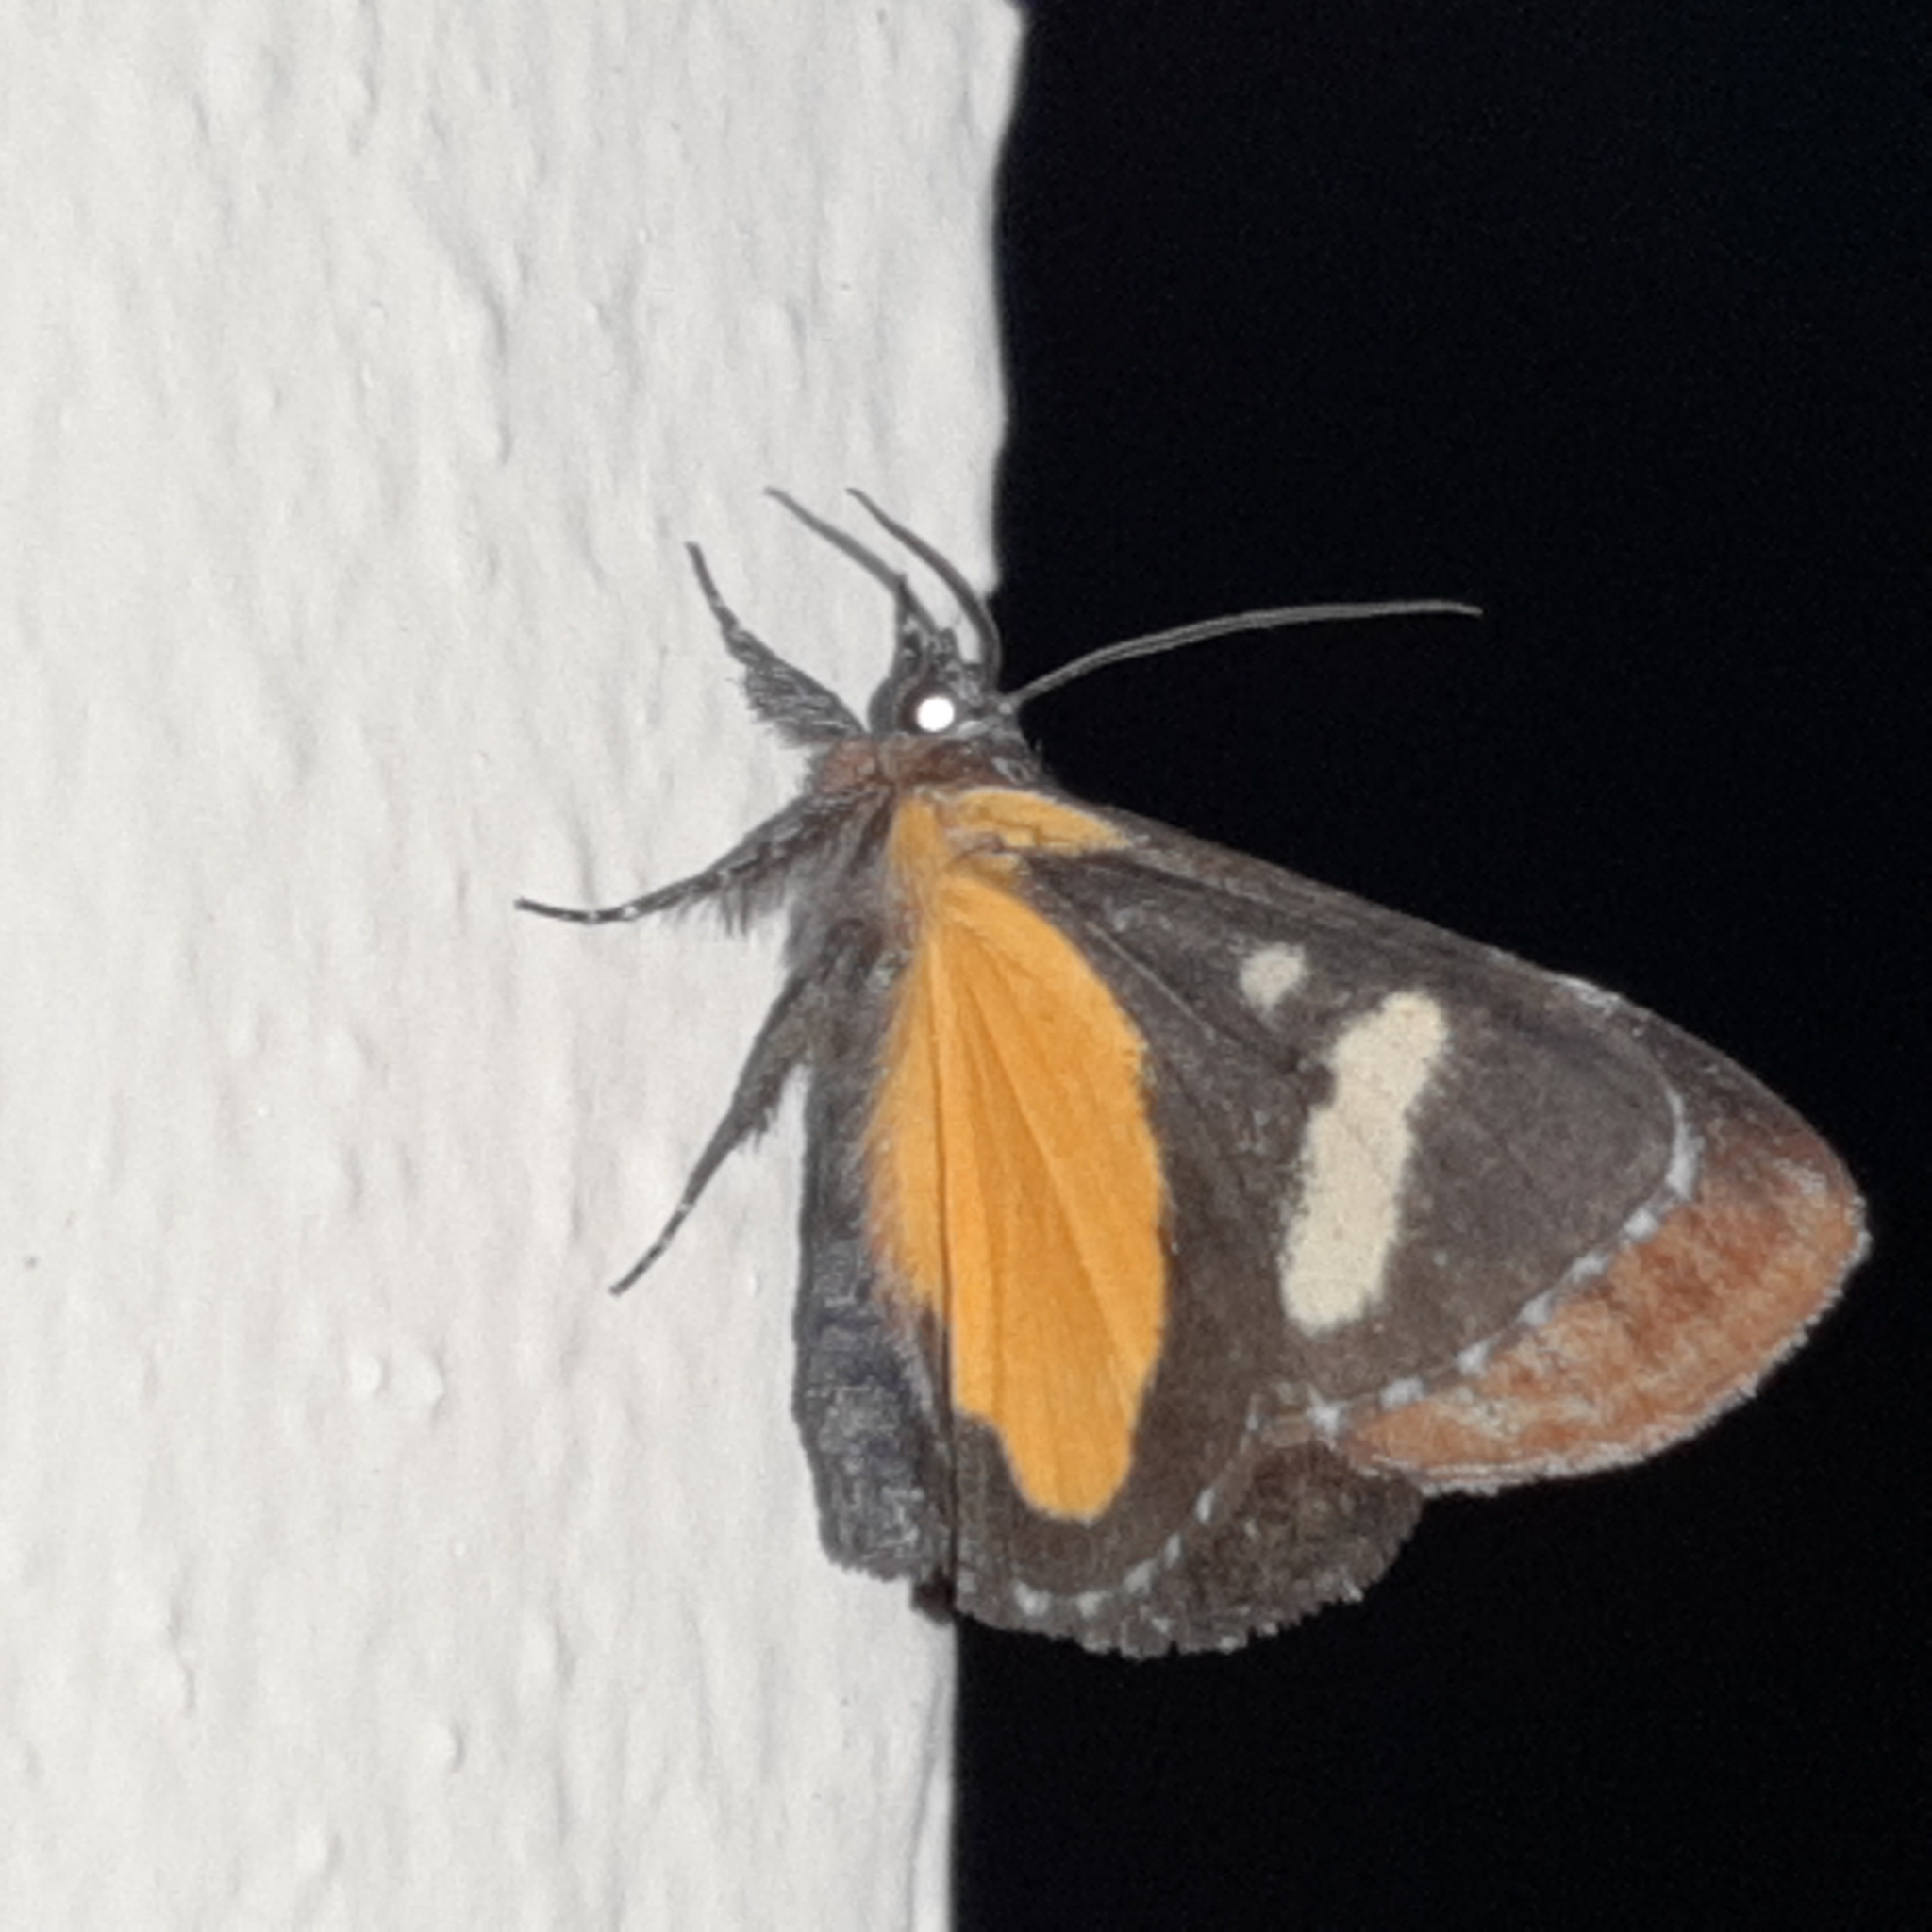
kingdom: Animalia
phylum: Arthropoda
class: Insecta
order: Lepidoptera
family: Noctuidae
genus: Gerra
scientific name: Gerra aelia
